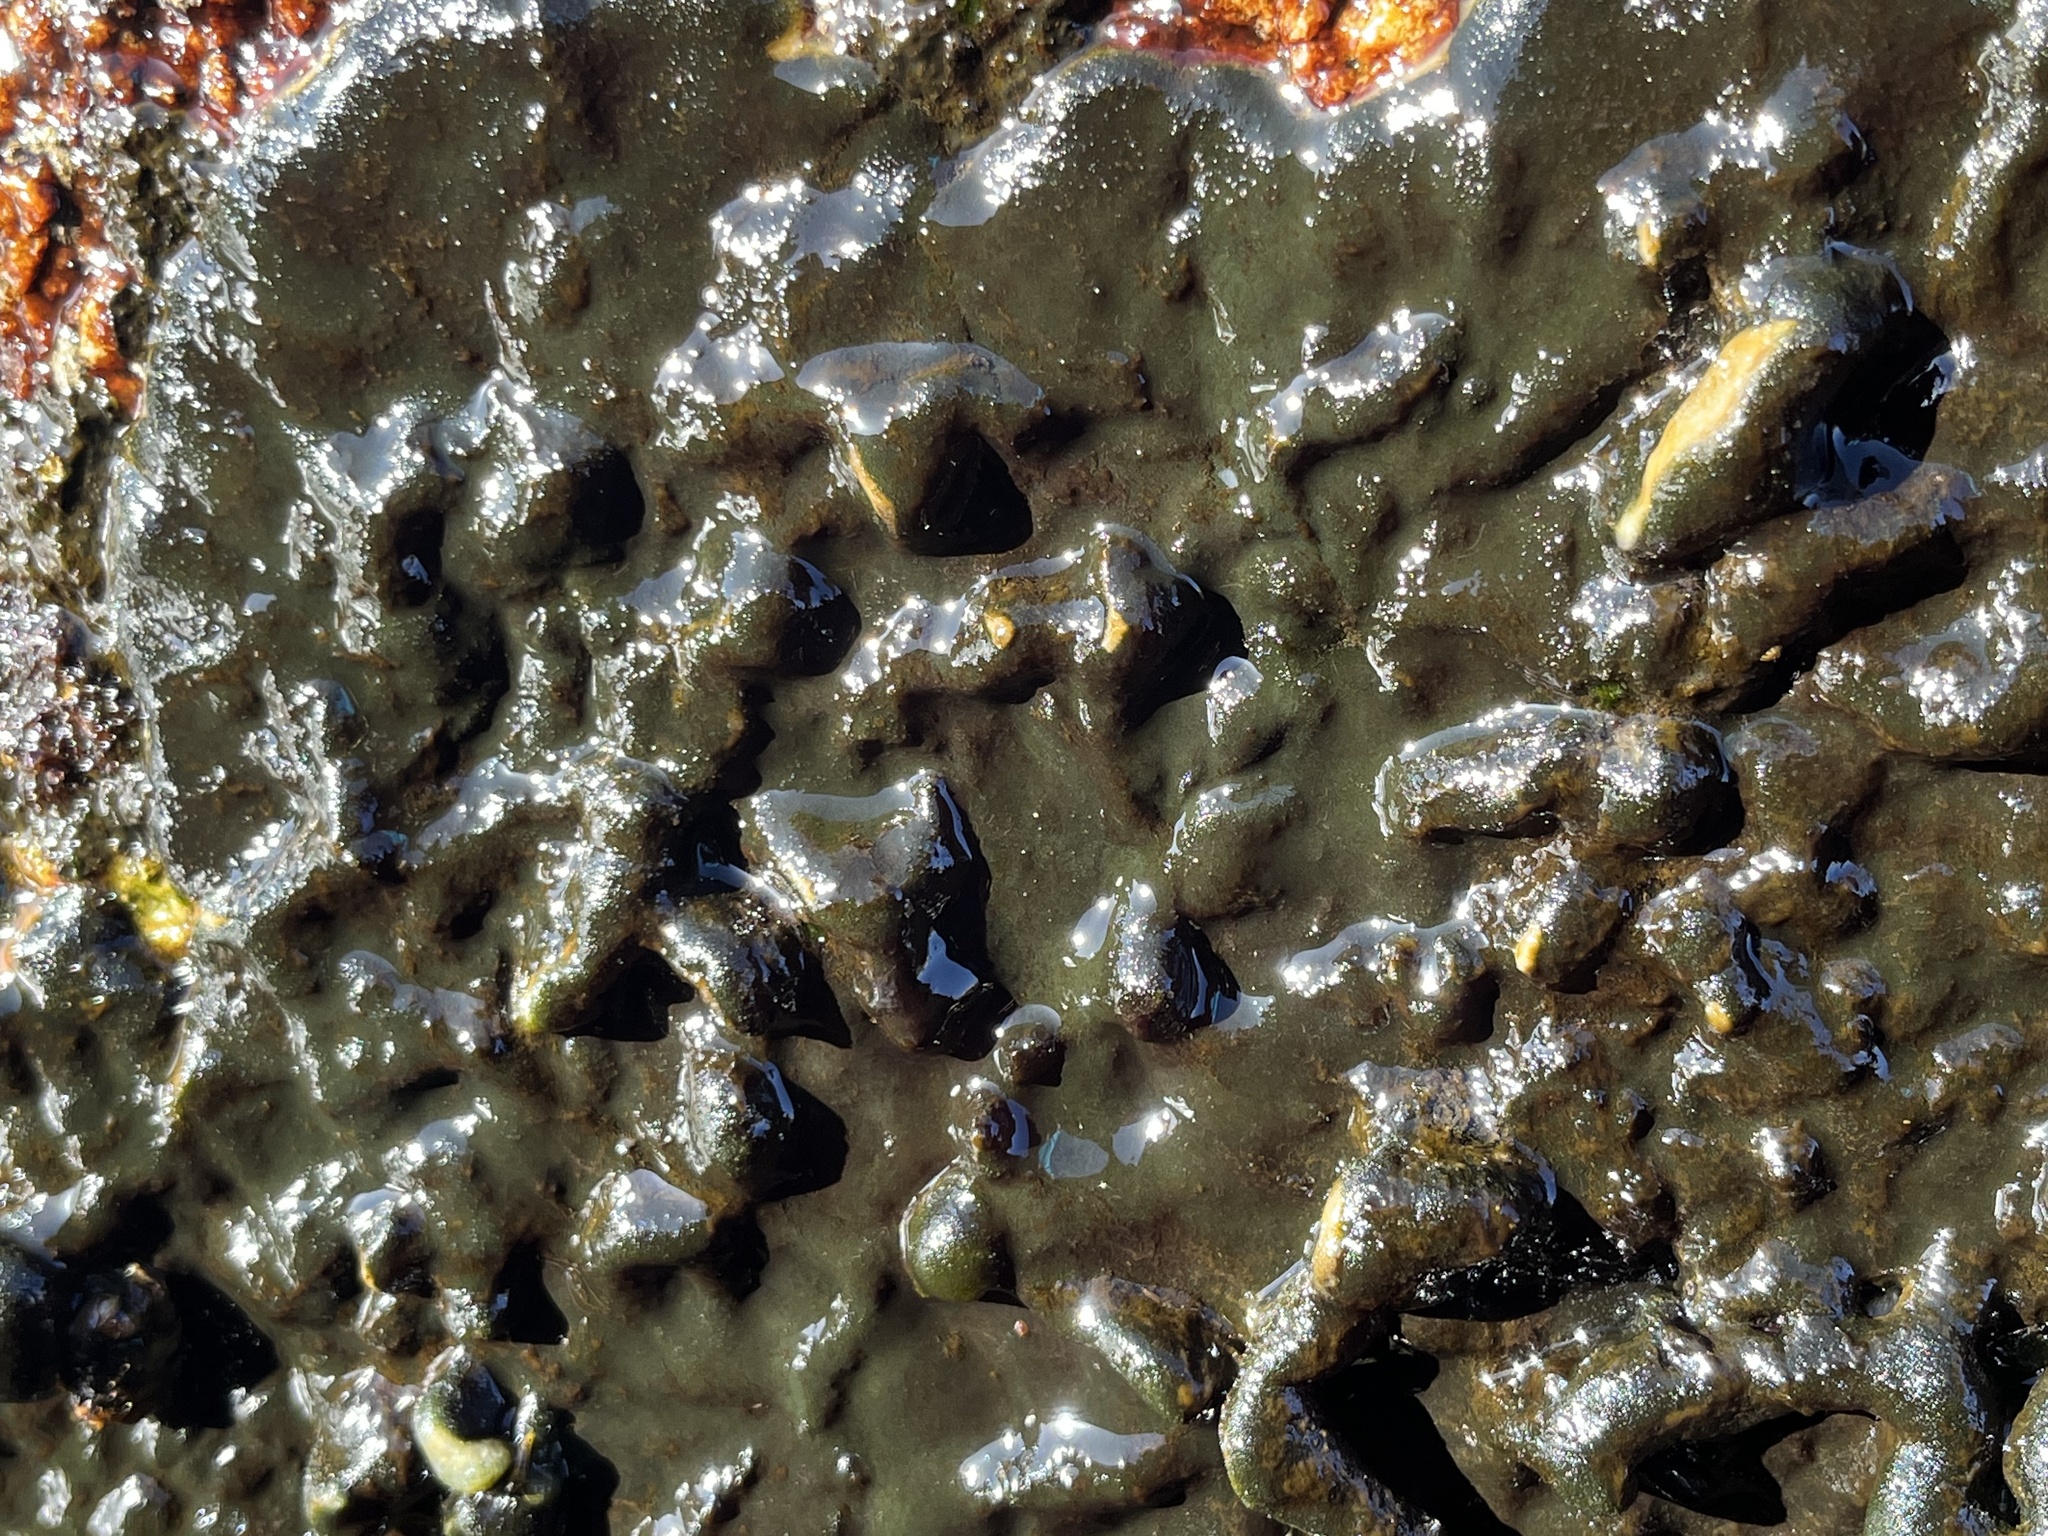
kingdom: Plantae
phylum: Chlorophyta
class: Ulvophyceae
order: Bryopsidales
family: Codiaceae
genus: Codium
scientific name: Codium
